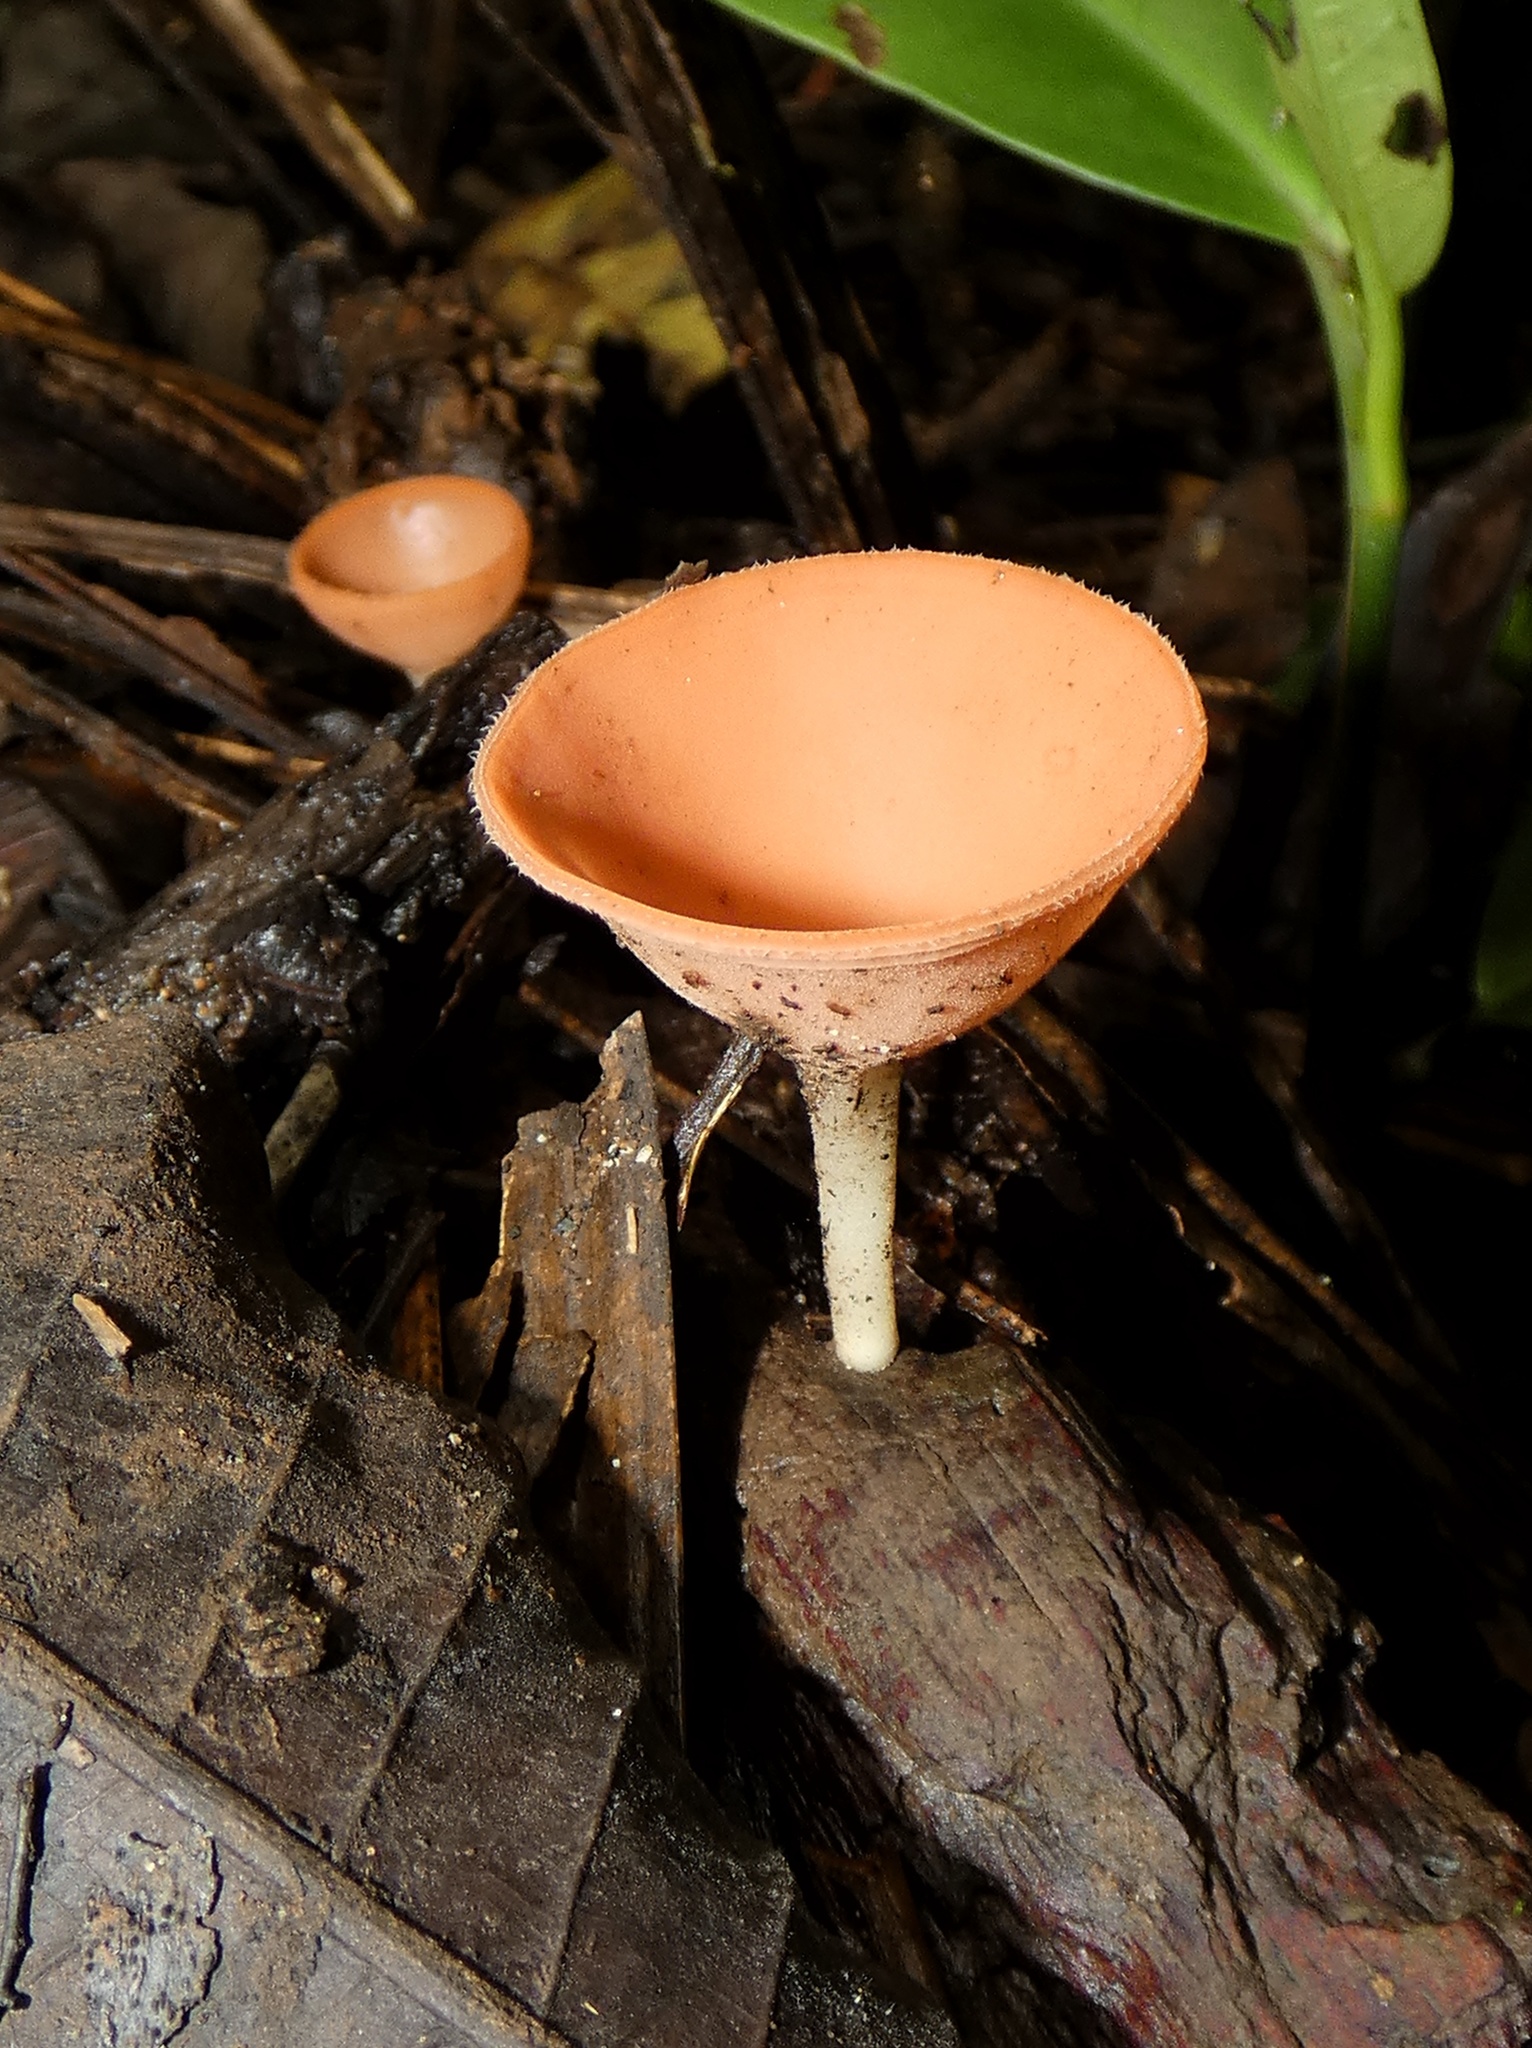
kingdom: Fungi
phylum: Ascomycota
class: Pezizomycetes
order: Pezizales
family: Sarcoscyphaceae
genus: Cookeina
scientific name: Cookeina speciosa
